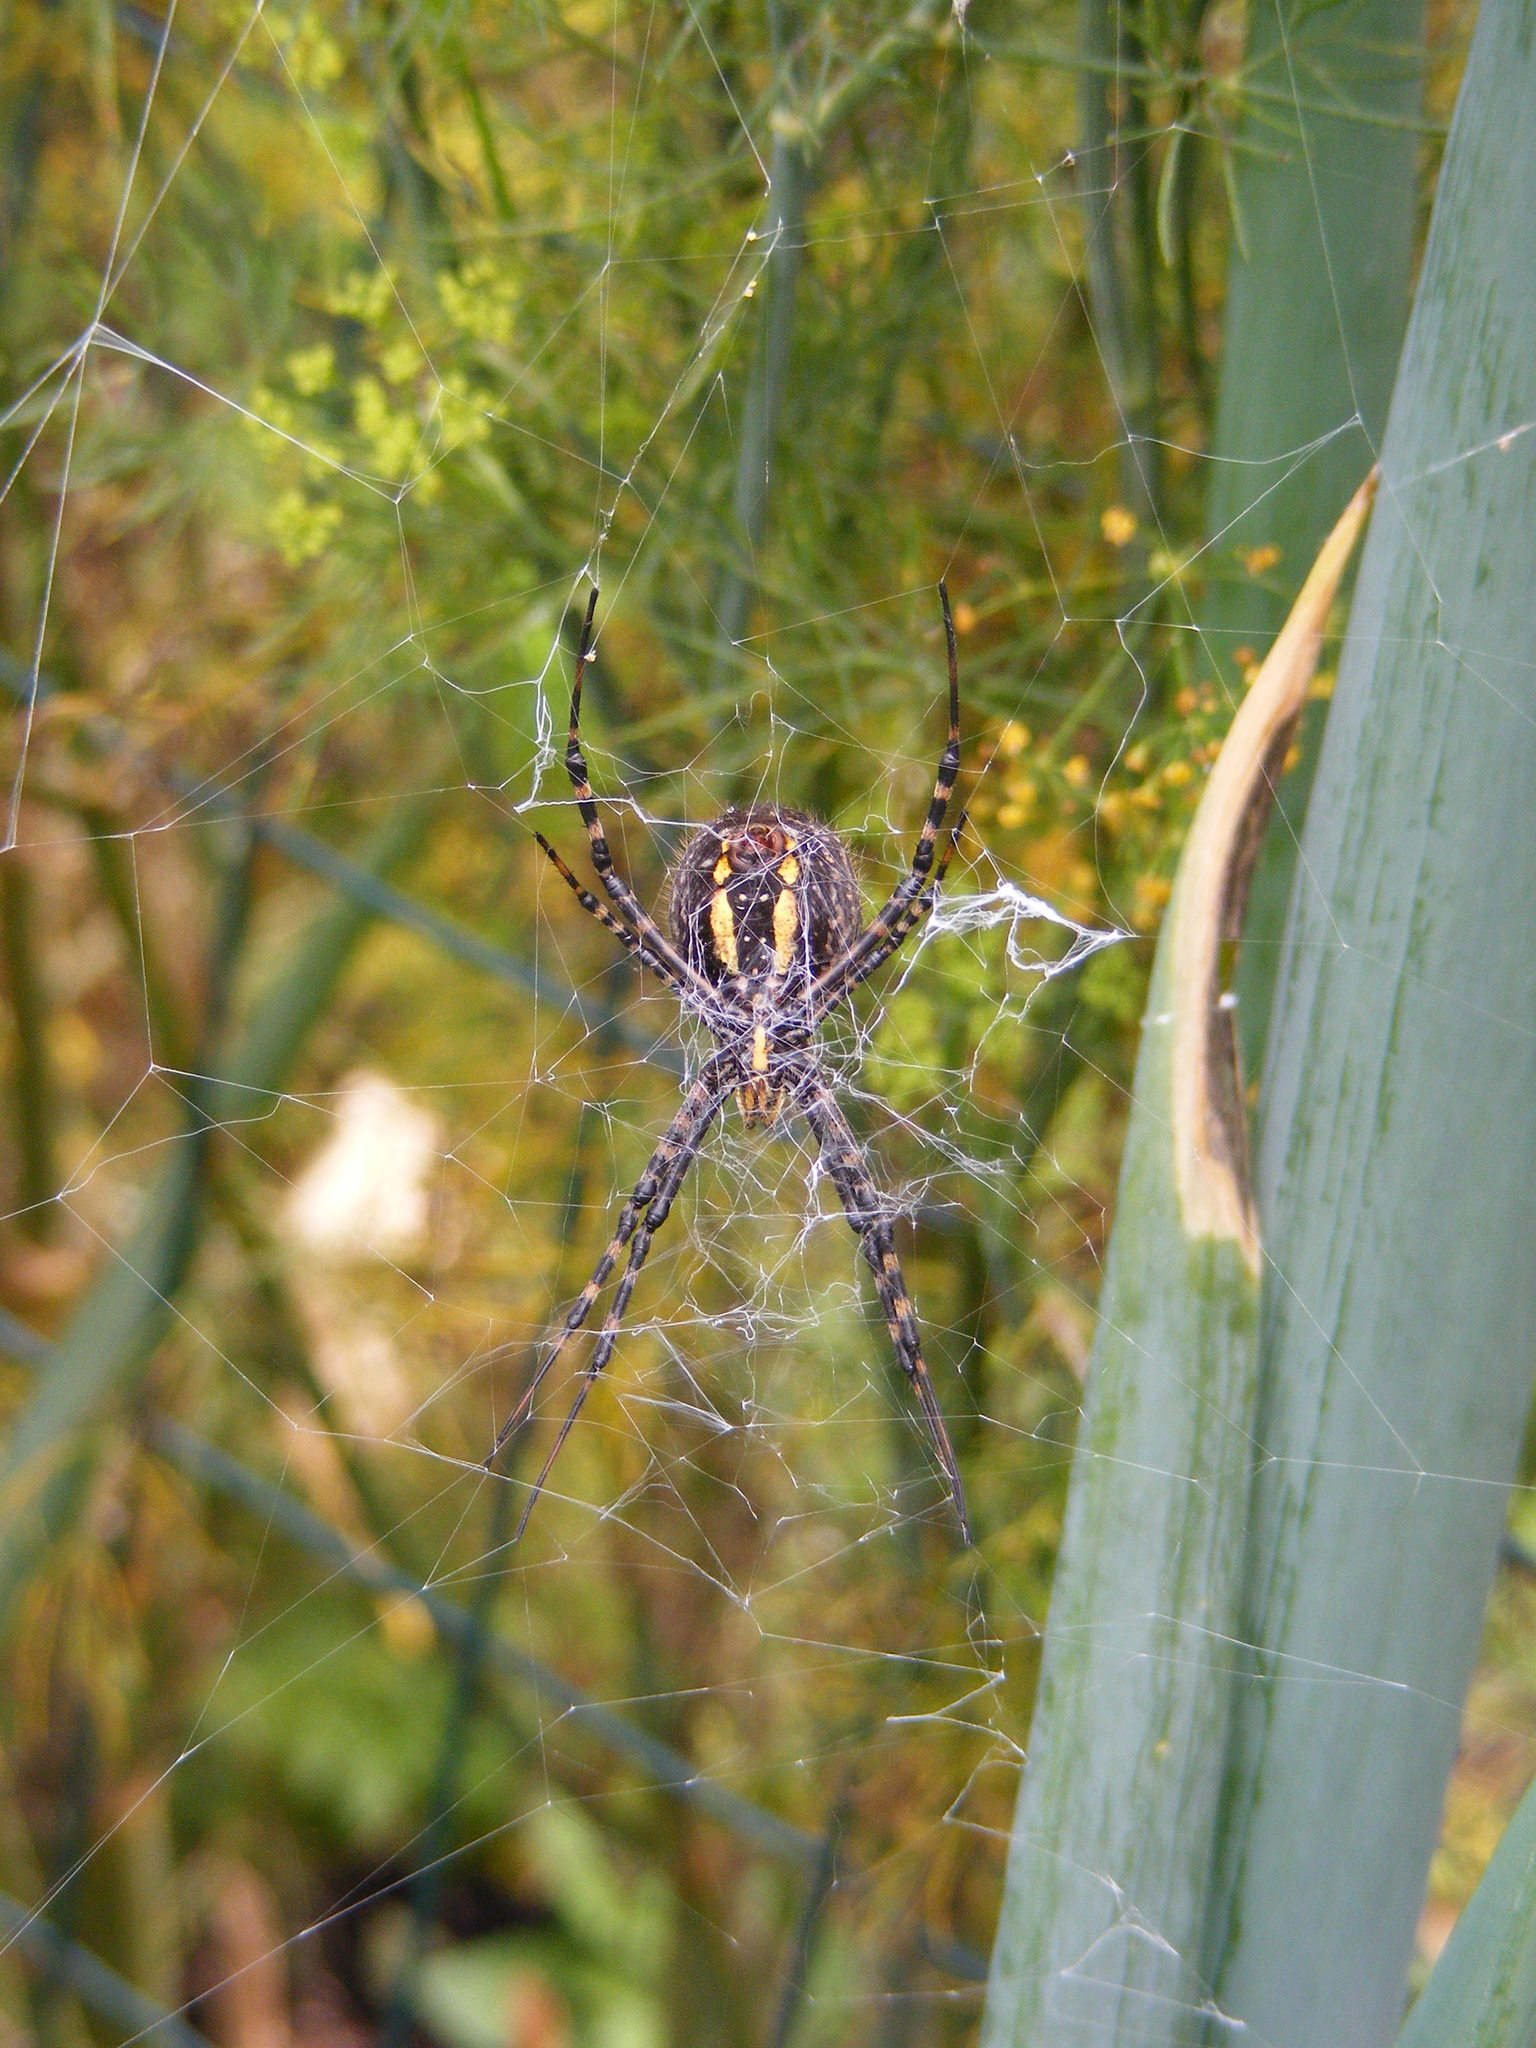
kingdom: Animalia
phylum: Arthropoda
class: Arachnida
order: Araneae
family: Araneidae
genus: Argiope
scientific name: Argiope trifasciata
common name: Banded garden spider
